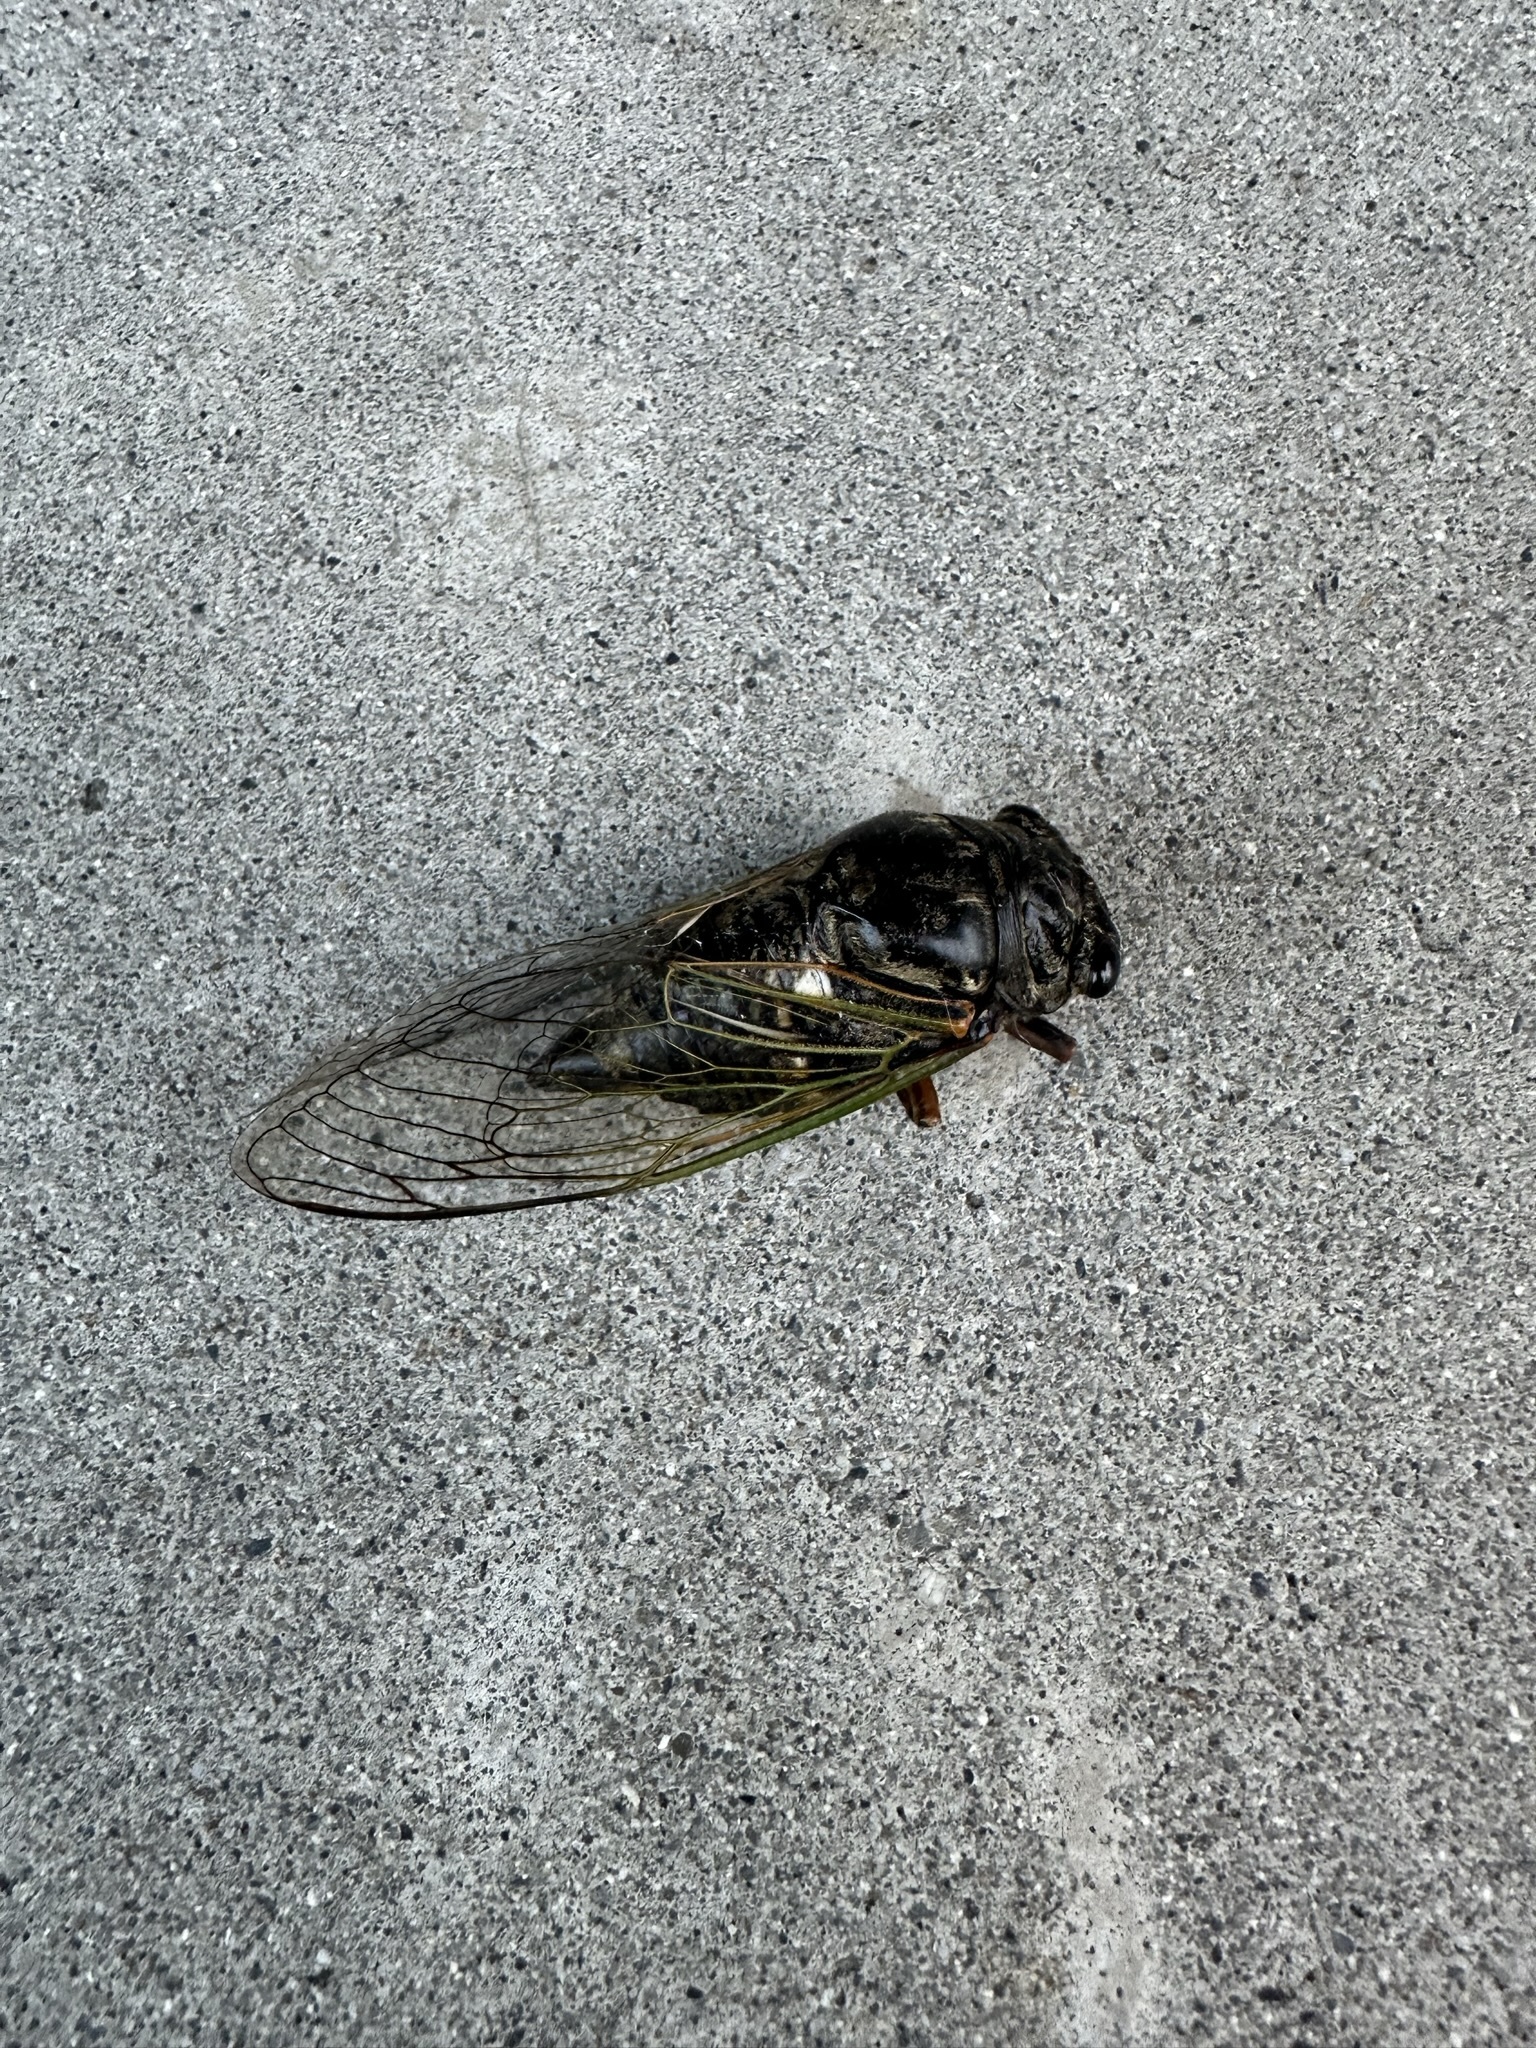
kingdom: Animalia
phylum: Arthropoda
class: Insecta
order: Hemiptera
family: Cicadidae
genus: Cryptotympana
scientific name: Cryptotympana facialis
